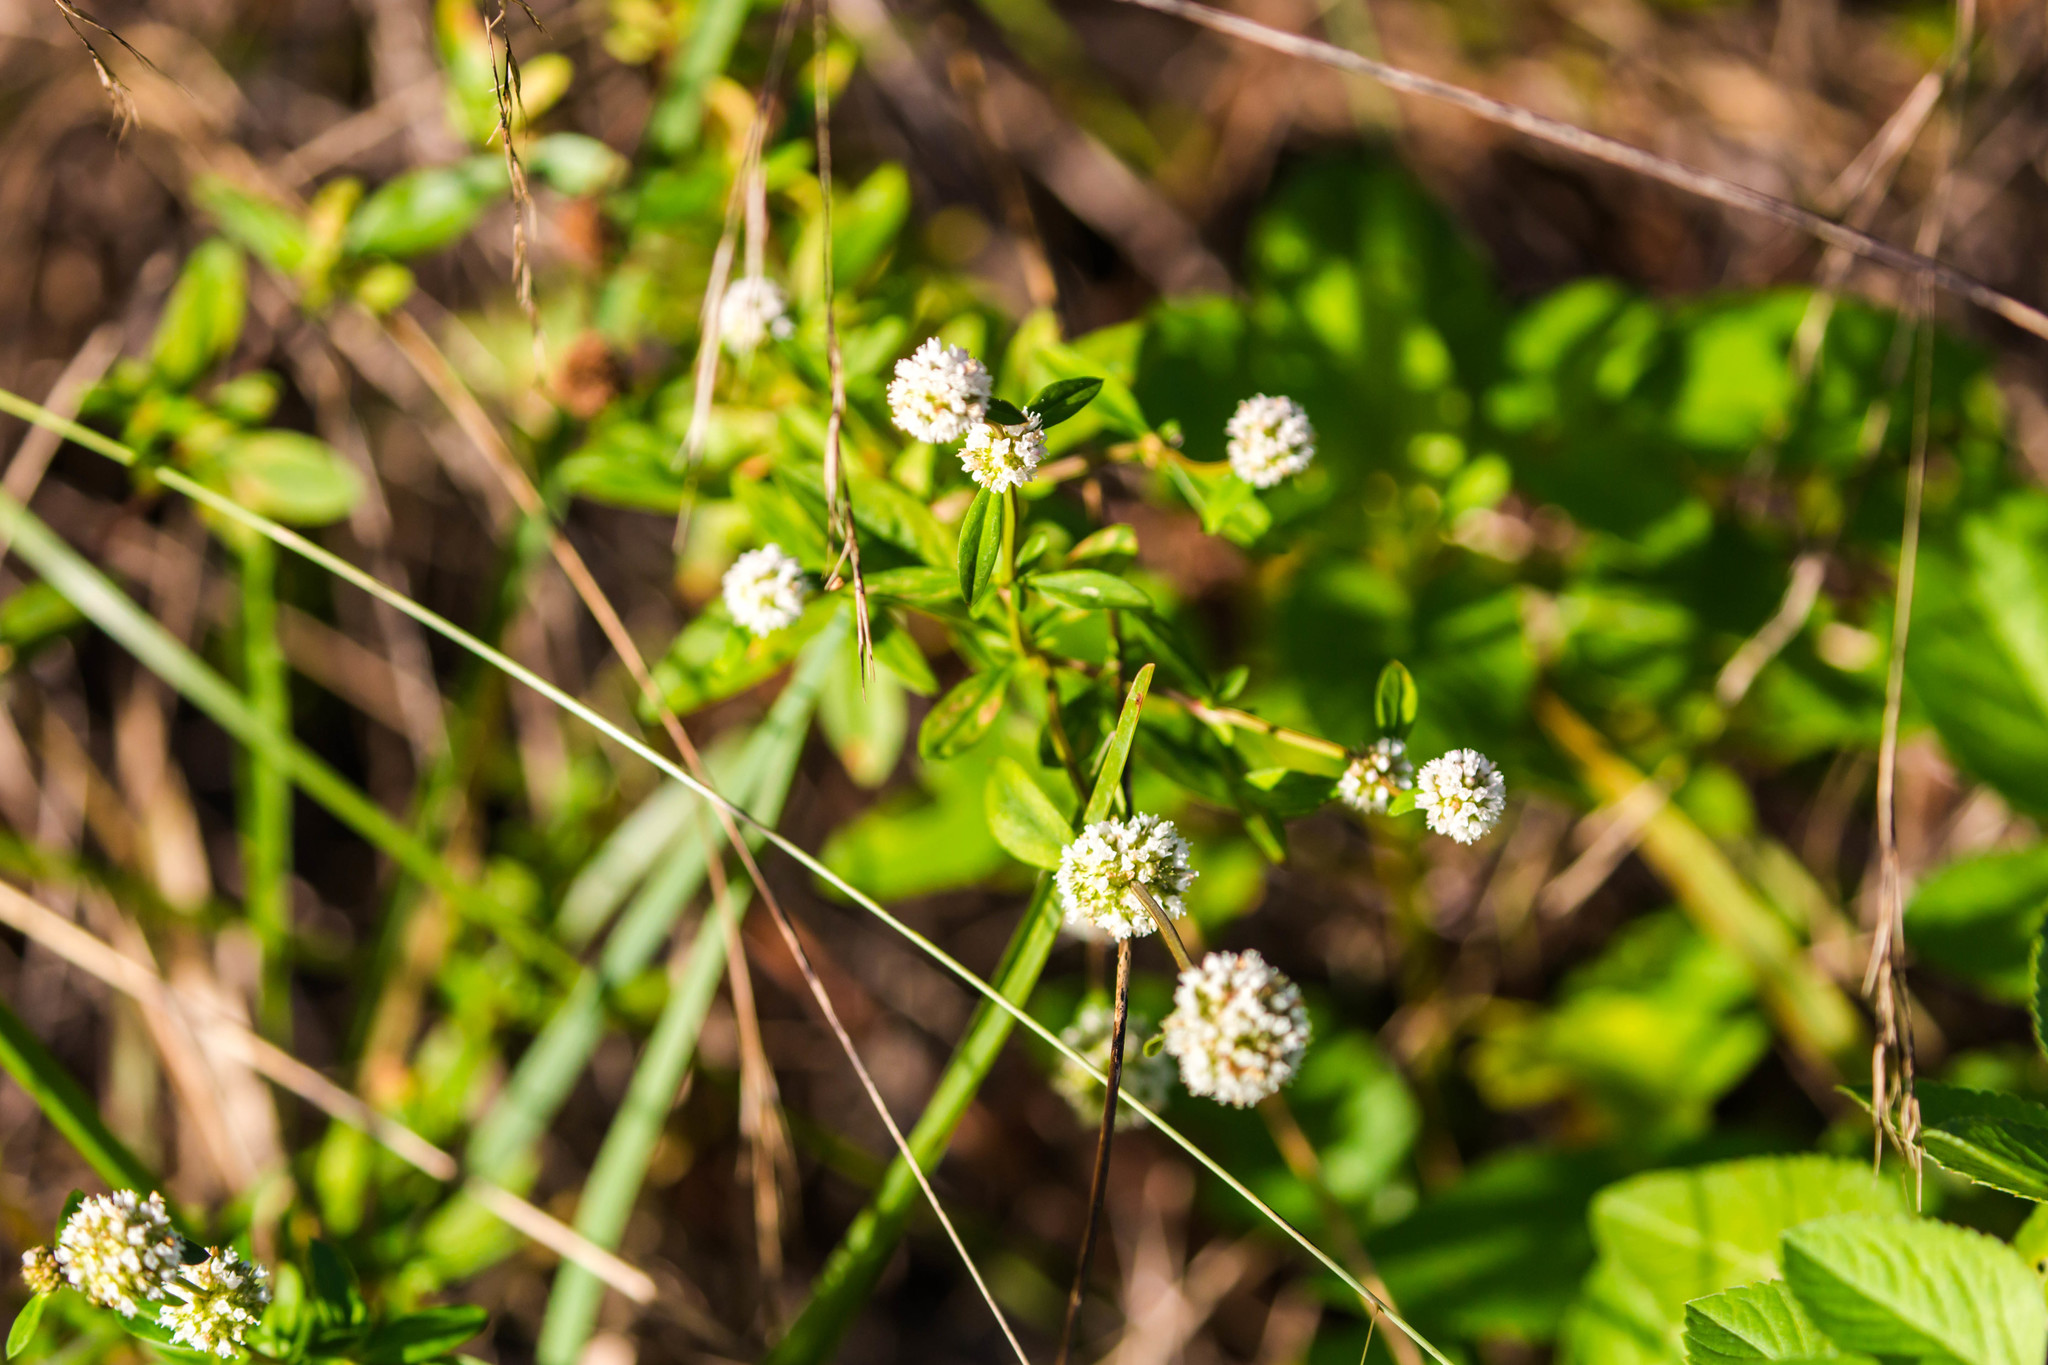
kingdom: Plantae
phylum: Tracheophyta
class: Magnoliopsida
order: Gentianales
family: Rubiaceae
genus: Spermacoce
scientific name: Spermacoce verticillata
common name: Shrubby false buttonweed
